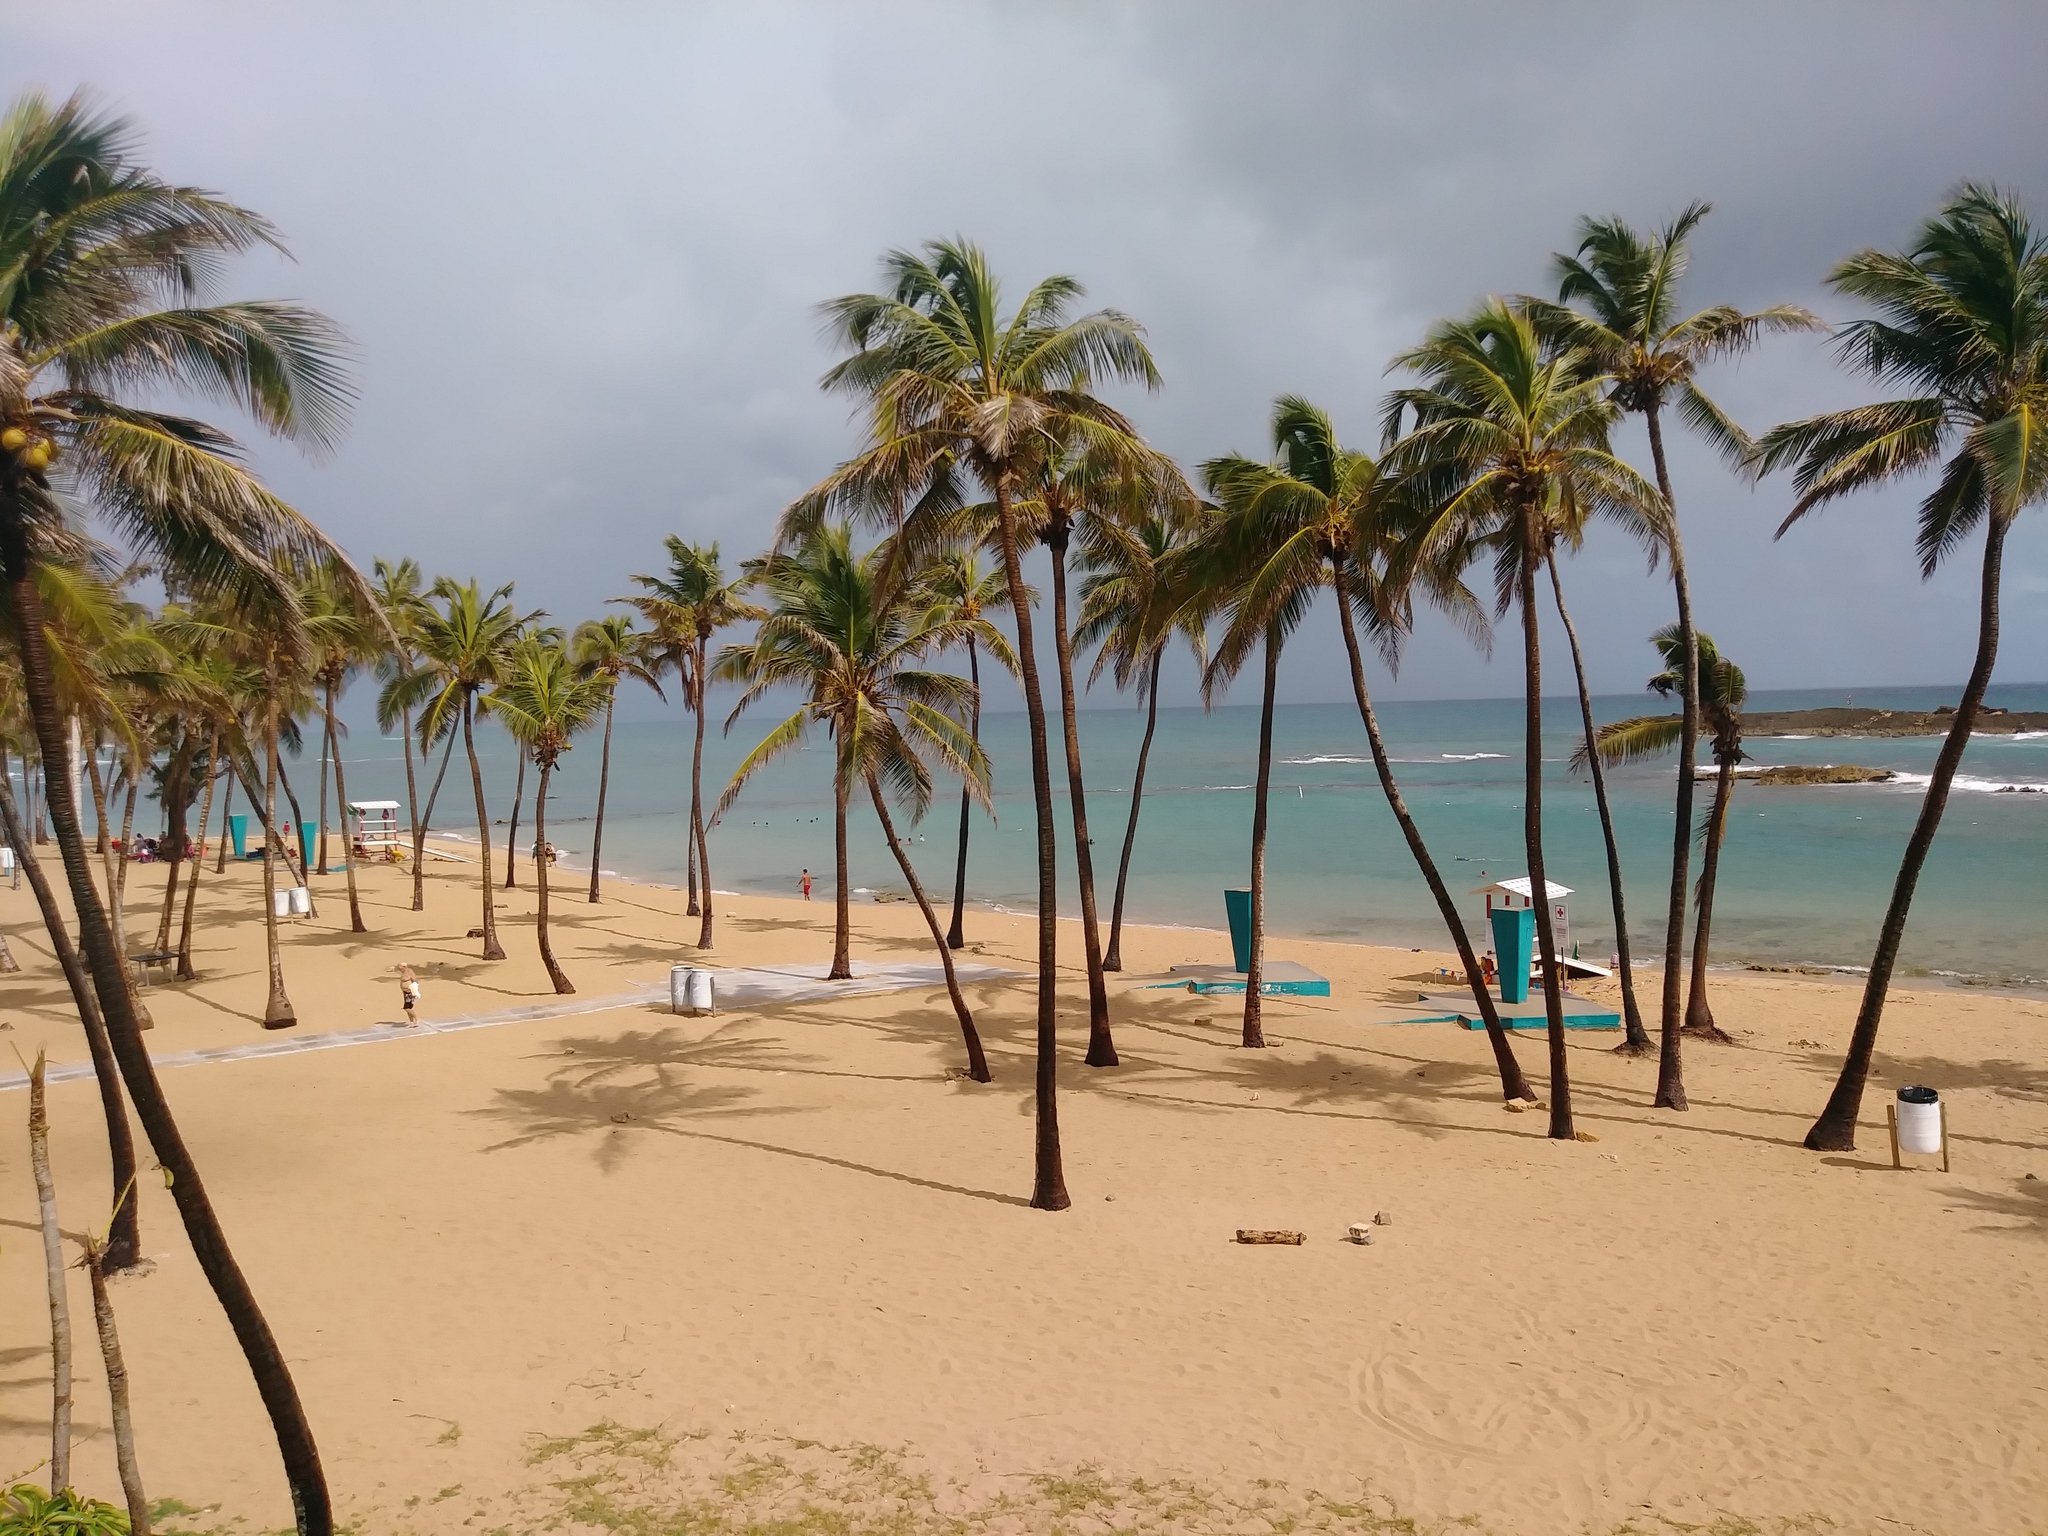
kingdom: Plantae
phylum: Tracheophyta
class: Liliopsida
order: Arecales
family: Arecaceae
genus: Cocos
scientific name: Cocos nucifera
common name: Coconut palm
